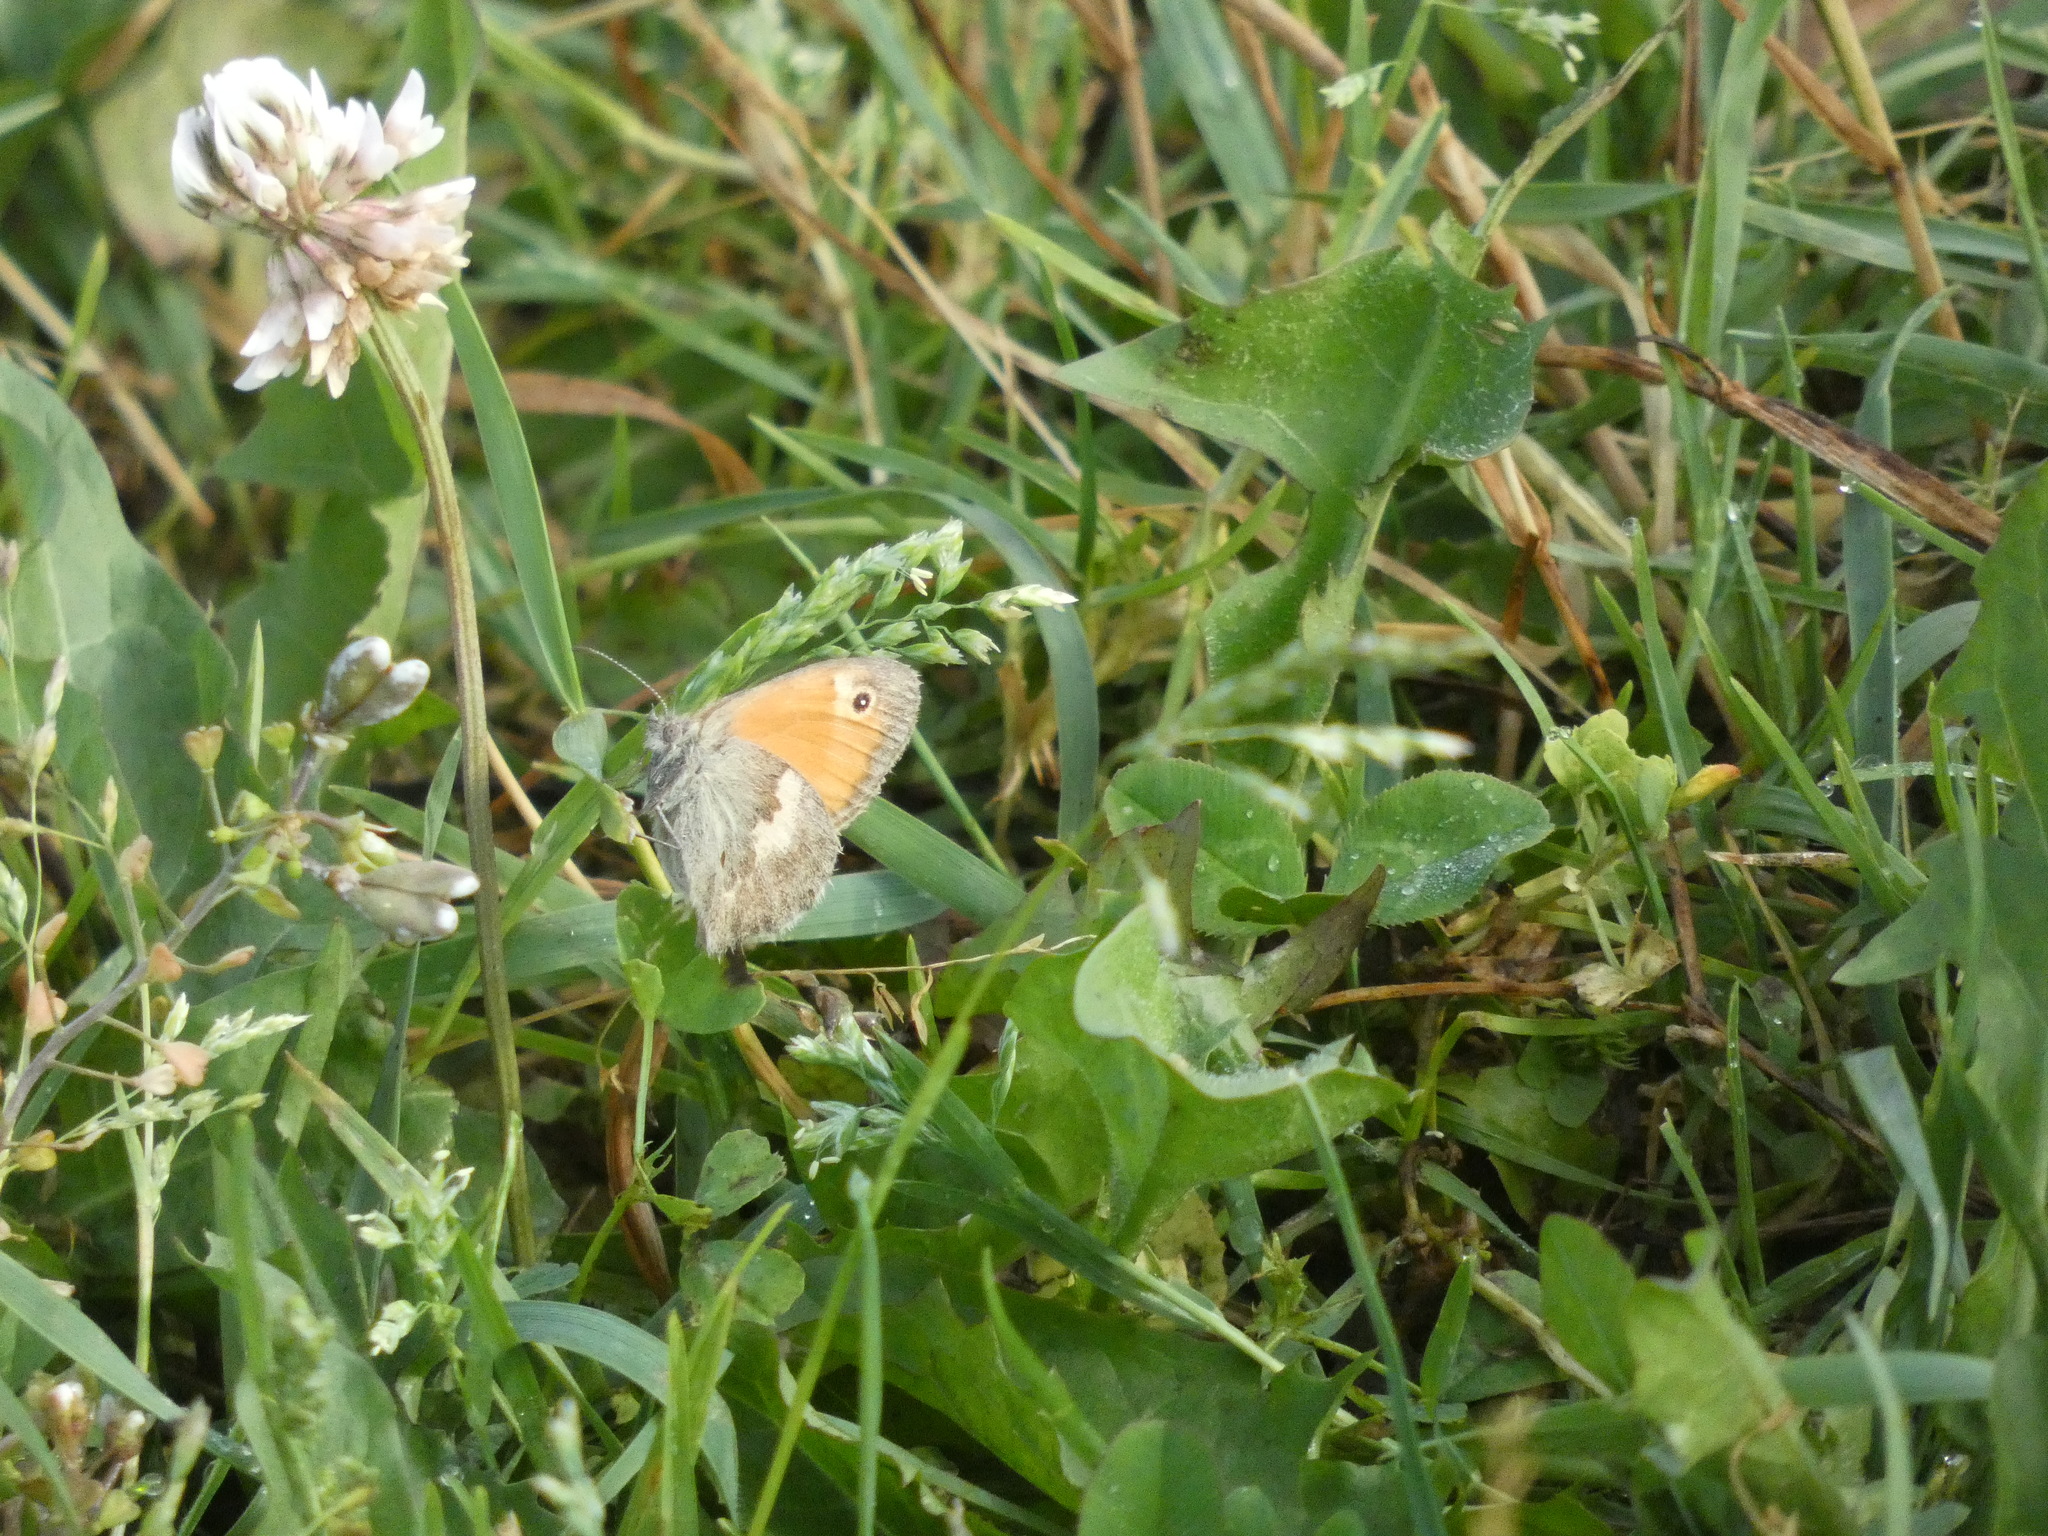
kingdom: Animalia
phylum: Arthropoda
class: Insecta
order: Lepidoptera
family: Nymphalidae
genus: Coenonympha
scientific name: Coenonympha pamphilus
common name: Small heath
